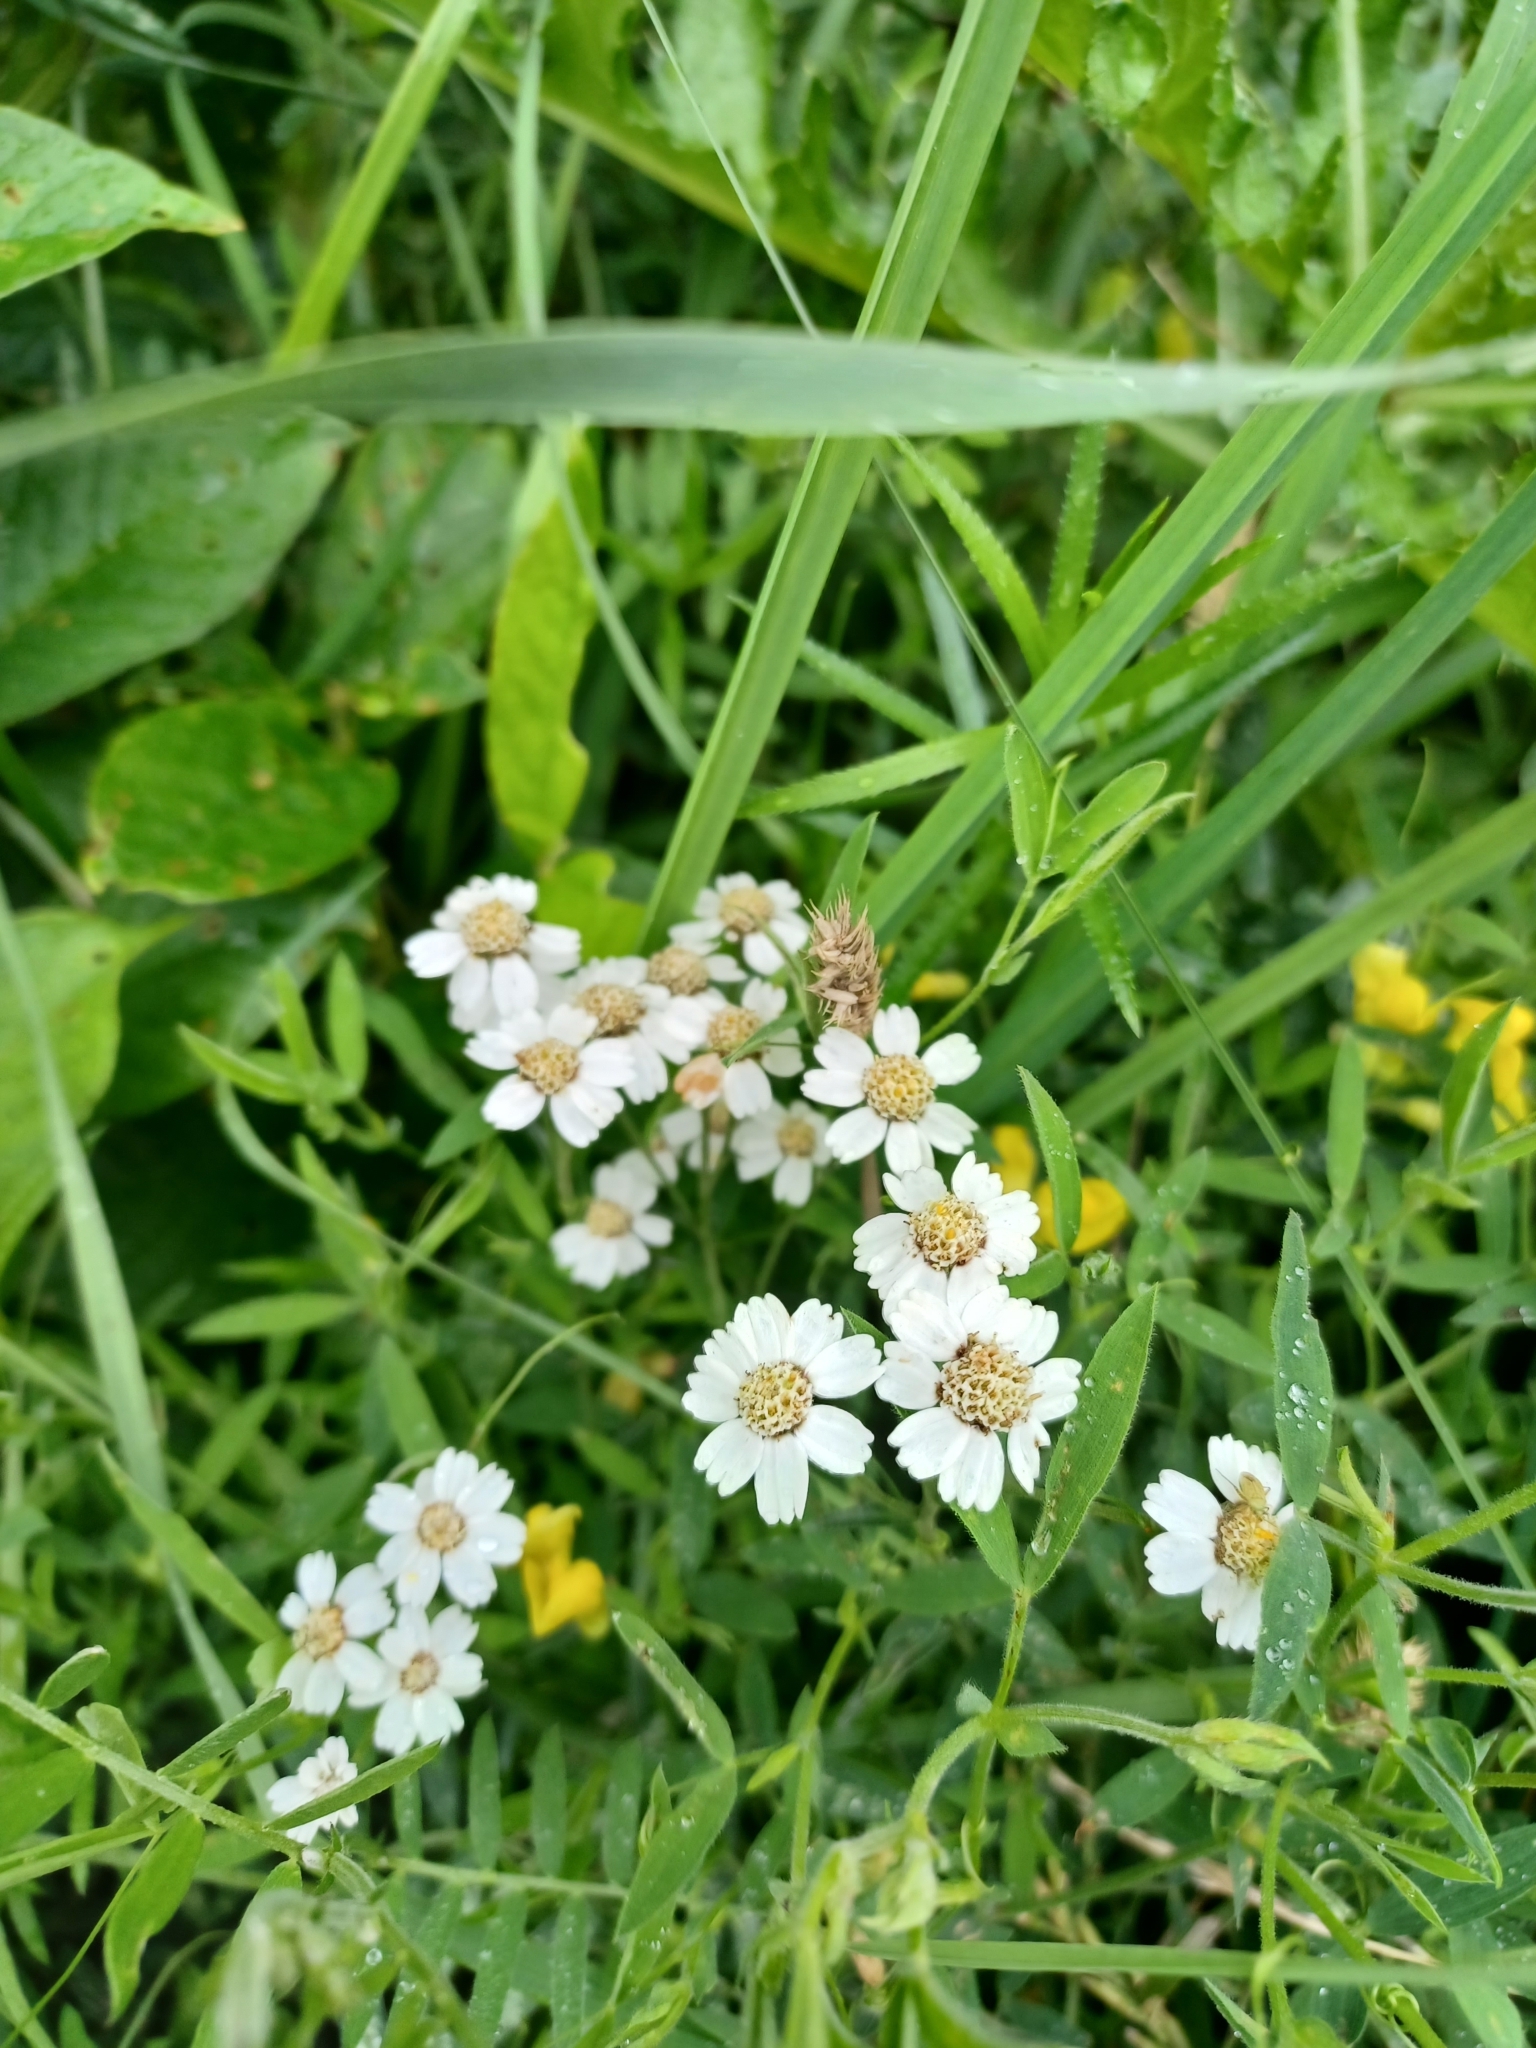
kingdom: Plantae
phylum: Tracheophyta
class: Magnoliopsida
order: Asterales
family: Asteraceae
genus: Achillea
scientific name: Achillea ptarmica
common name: Sneezeweed
